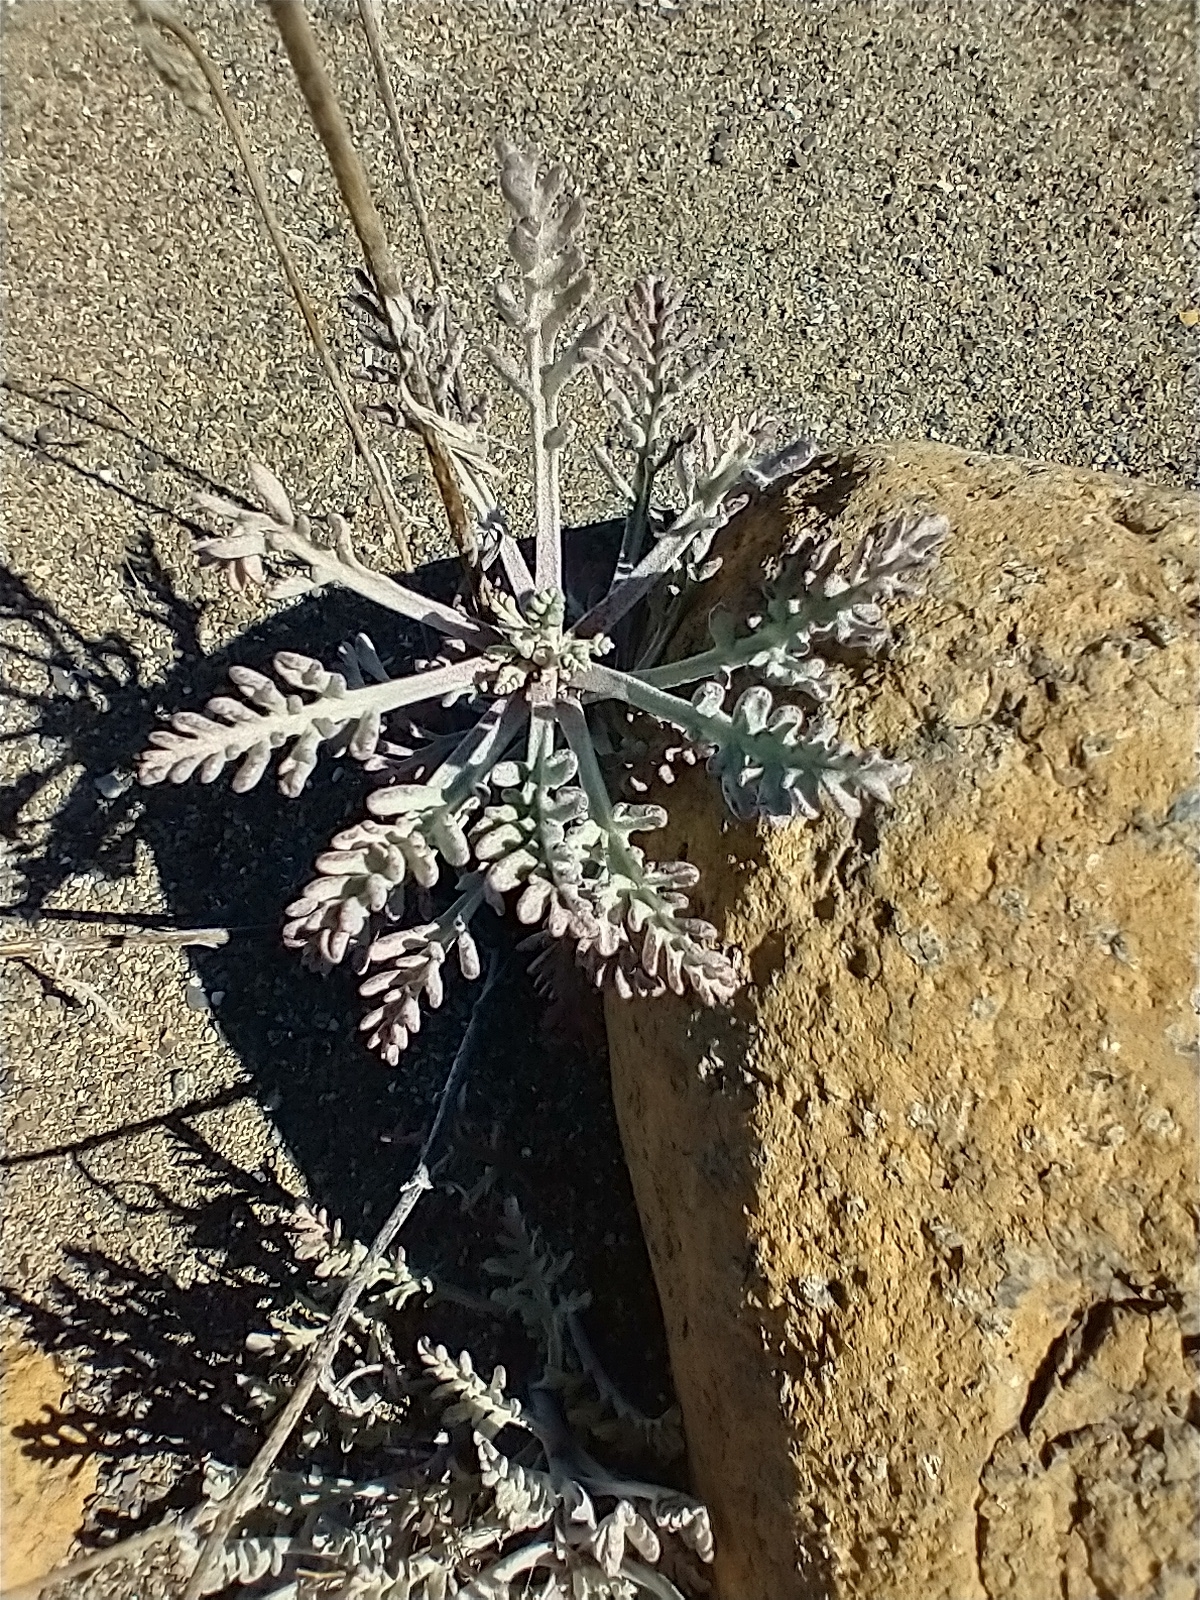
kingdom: Plantae
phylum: Tracheophyta
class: Magnoliopsida
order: Asterales
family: Asteraceae
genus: Chaenactis
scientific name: Chaenactis douglasii
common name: Hoary pincushion
